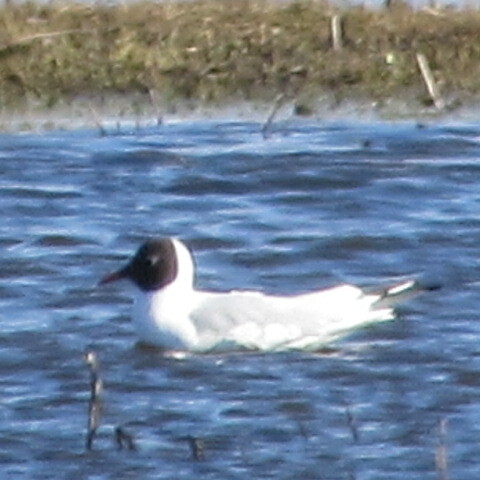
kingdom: Animalia
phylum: Chordata
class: Aves
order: Charadriiformes
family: Laridae
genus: Chroicocephalus
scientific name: Chroicocephalus ridibundus
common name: Black-headed gull
